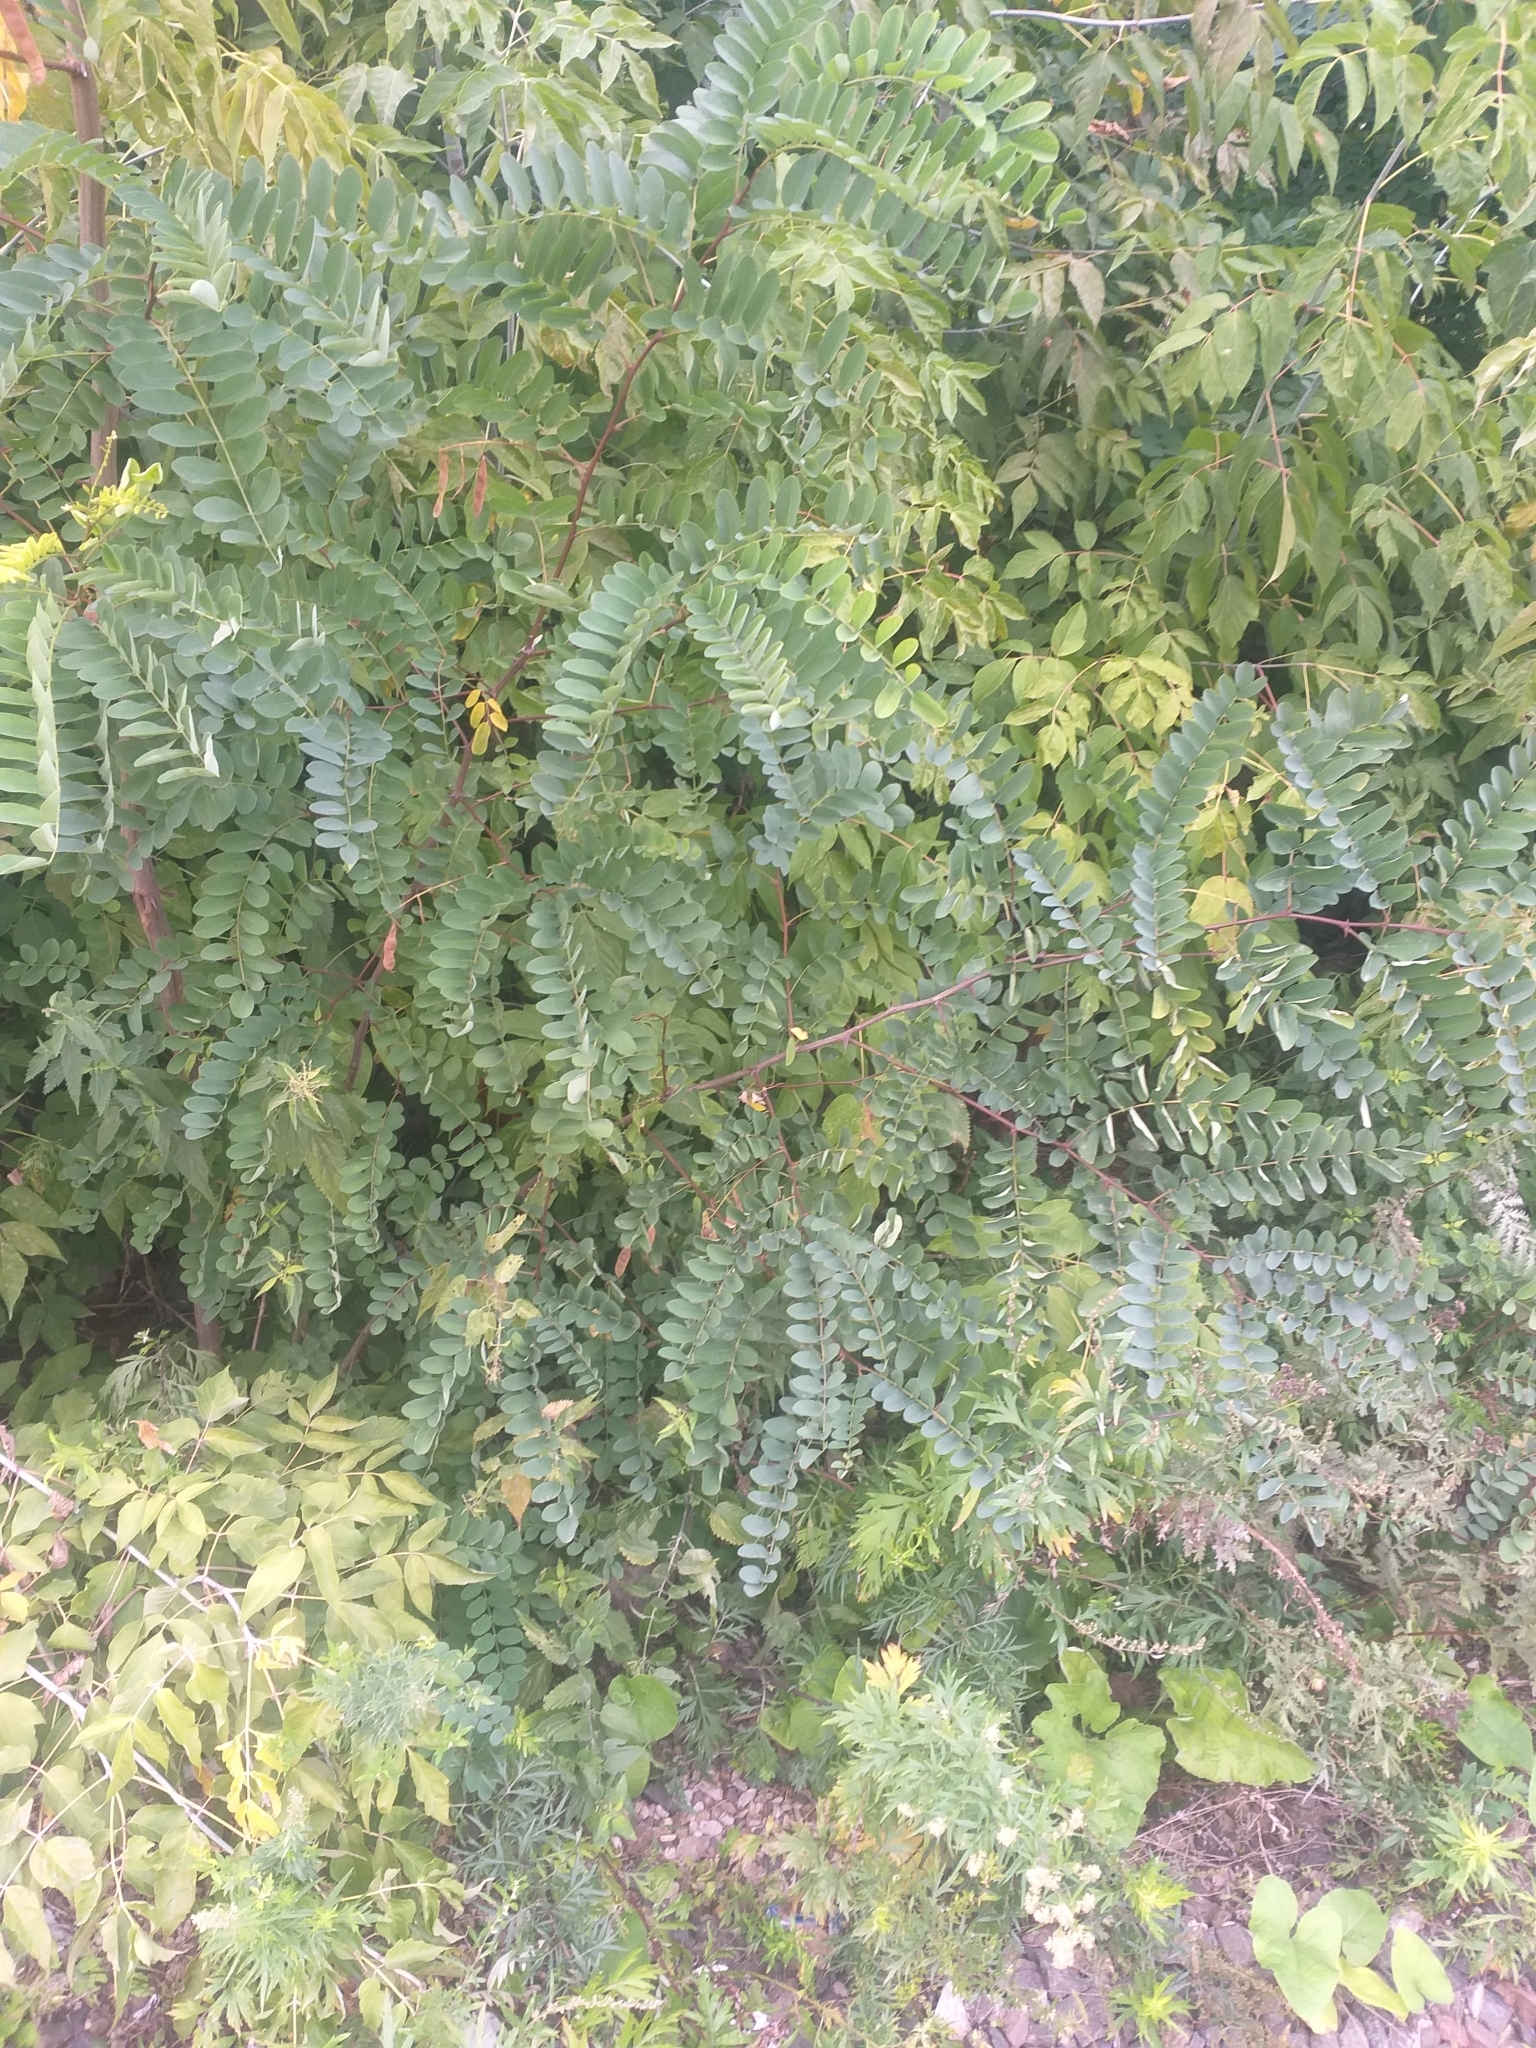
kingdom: Plantae
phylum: Tracheophyta
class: Magnoliopsida
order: Fabales
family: Fabaceae
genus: Robinia
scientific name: Robinia pseudoacacia
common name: Black locust
